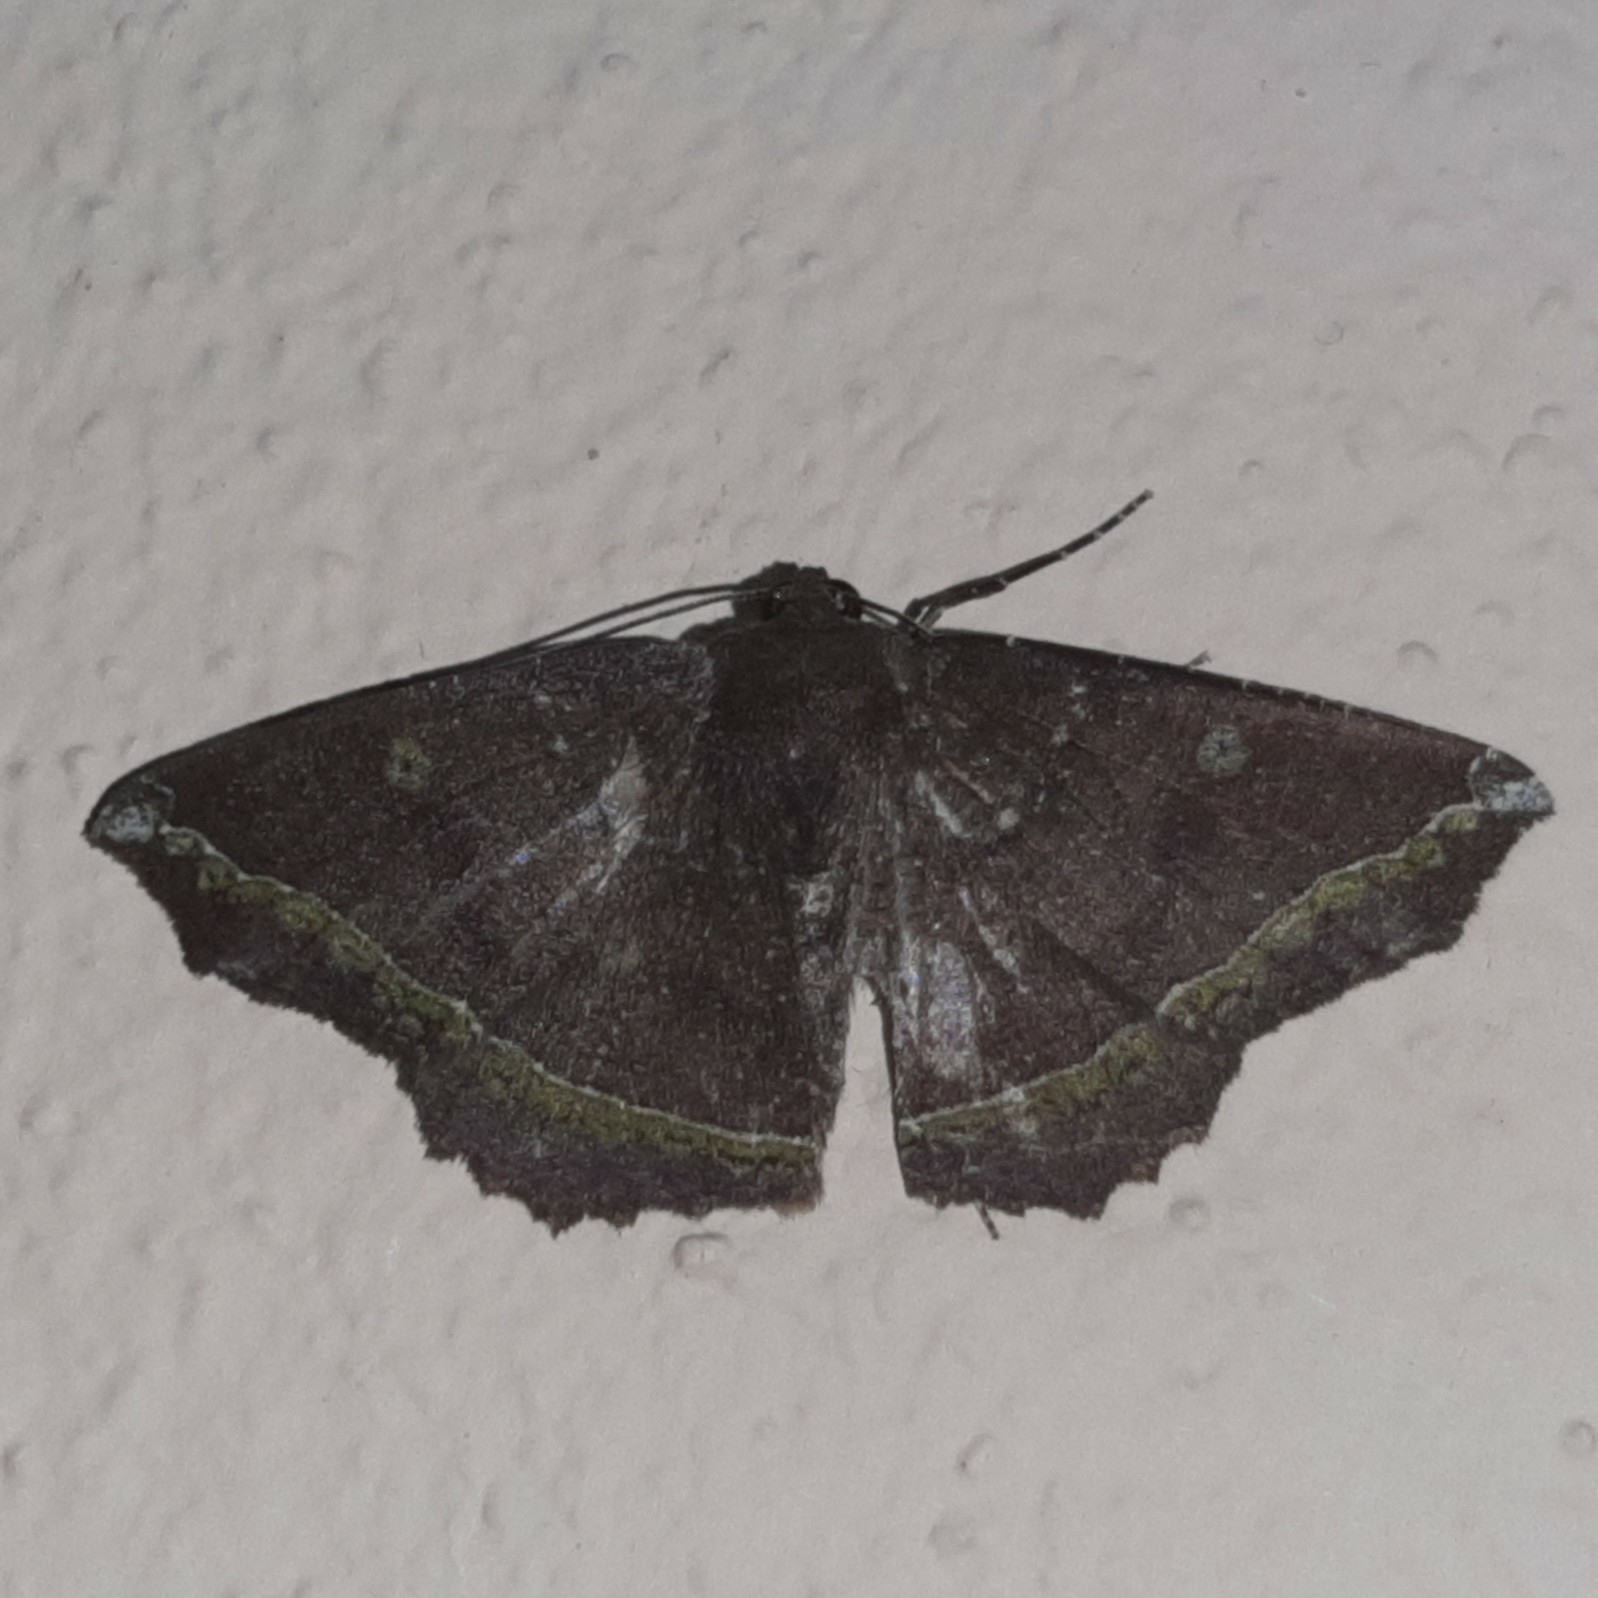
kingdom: Animalia
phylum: Arthropoda
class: Insecta
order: Lepidoptera
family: Geometridae
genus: Synnomos
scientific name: Synnomos firmamentaria
